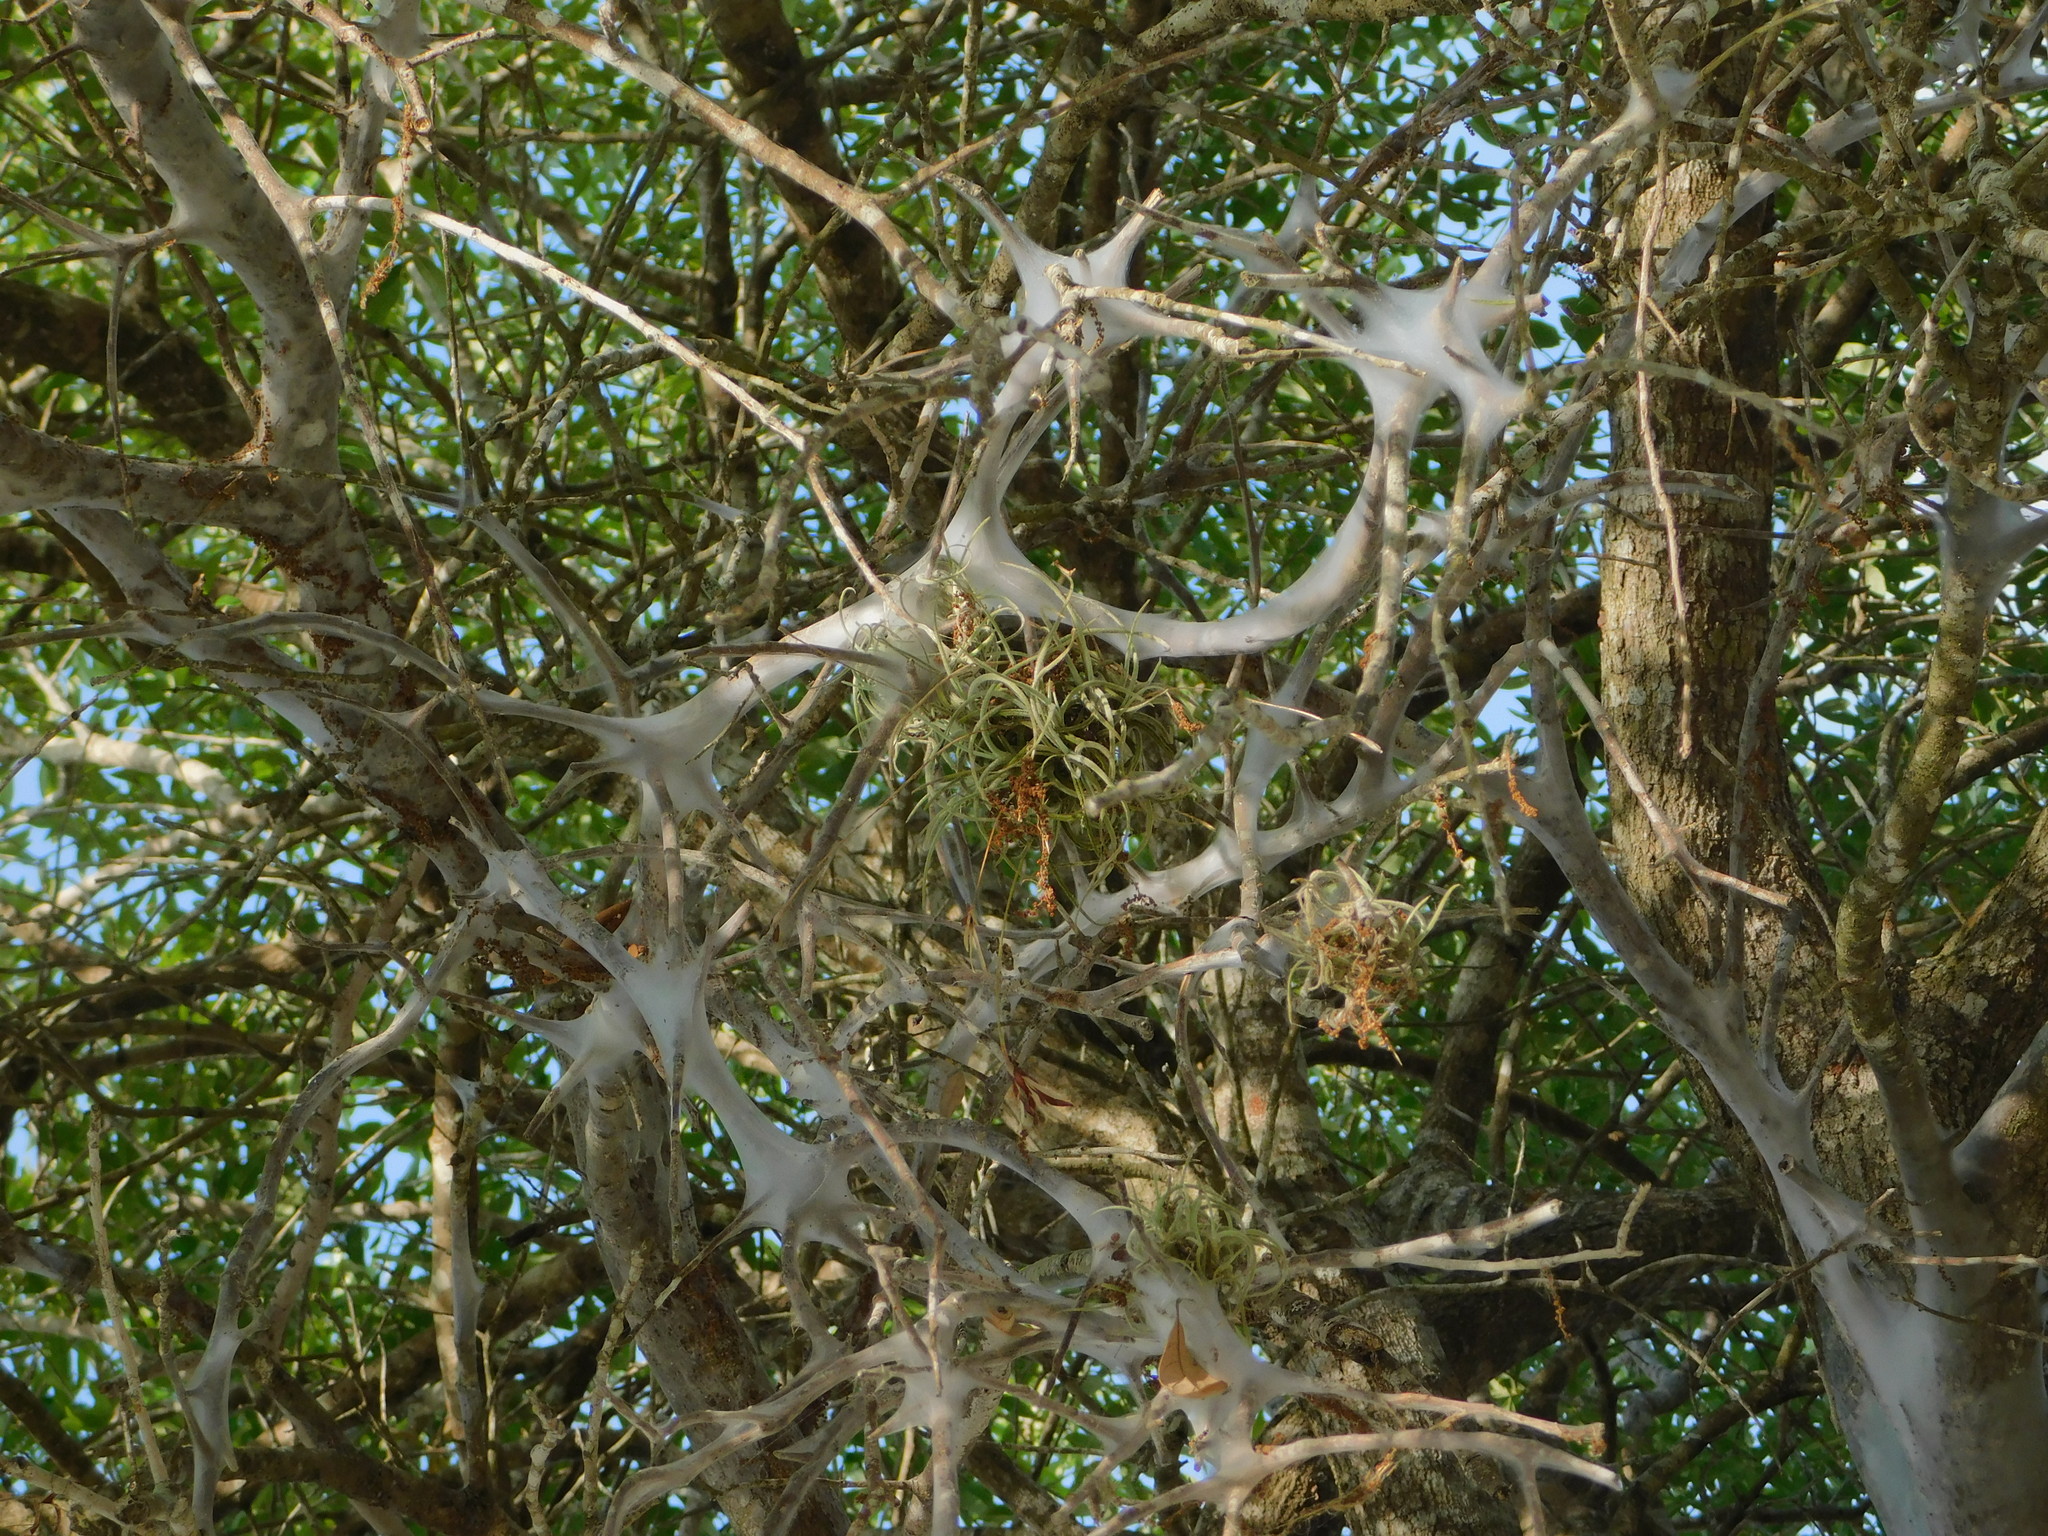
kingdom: Plantae
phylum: Tracheophyta
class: Liliopsida
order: Poales
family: Bromeliaceae
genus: Tillandsia
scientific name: Tillandsia recurvata
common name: Small ballmoss
